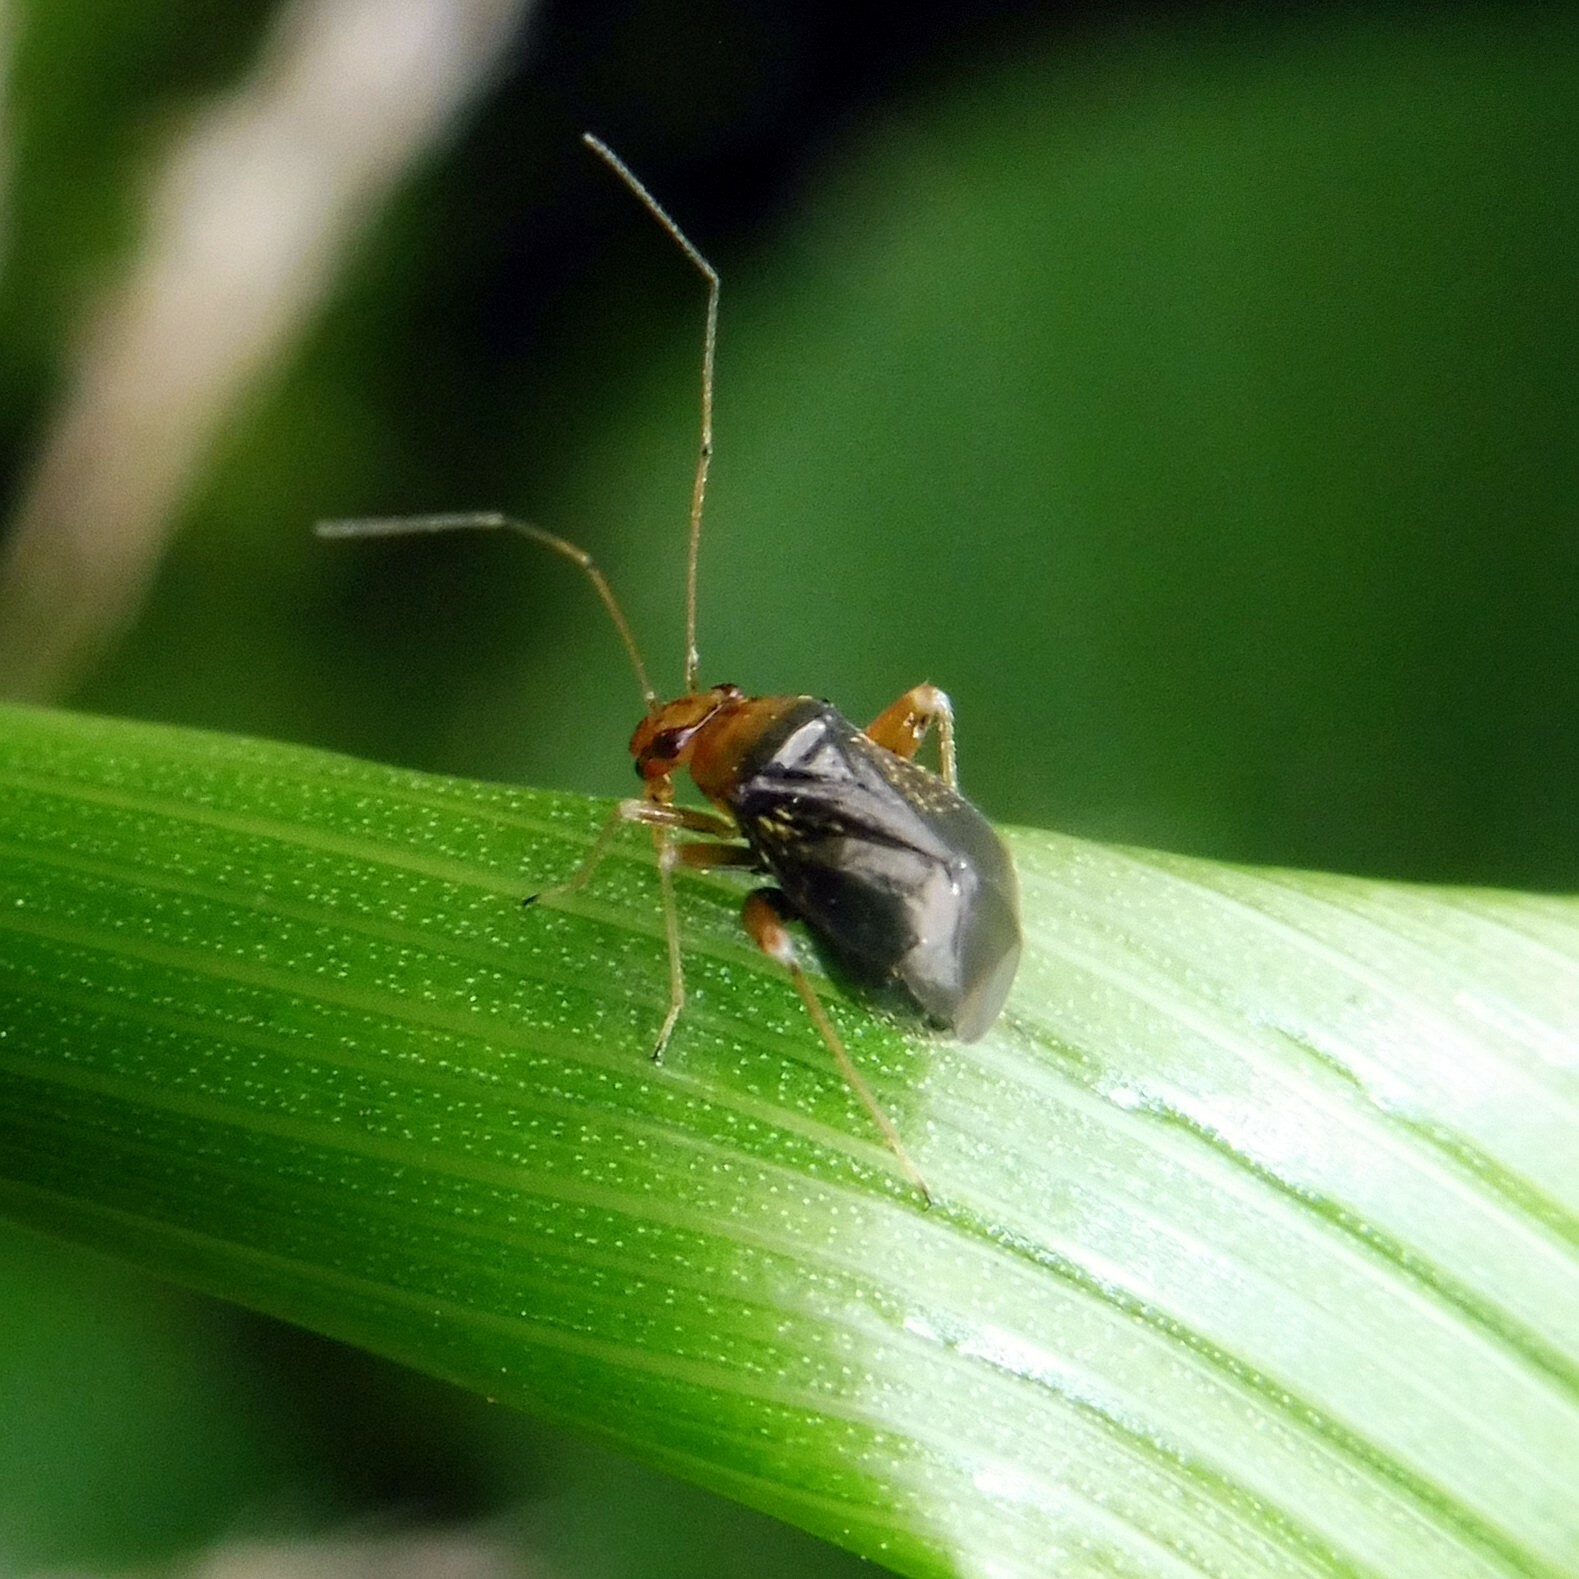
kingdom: Animalia
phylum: Arthropoda
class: Insecta
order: Hemiptera
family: Miridae
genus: Halticus
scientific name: Halticus luteicollis
